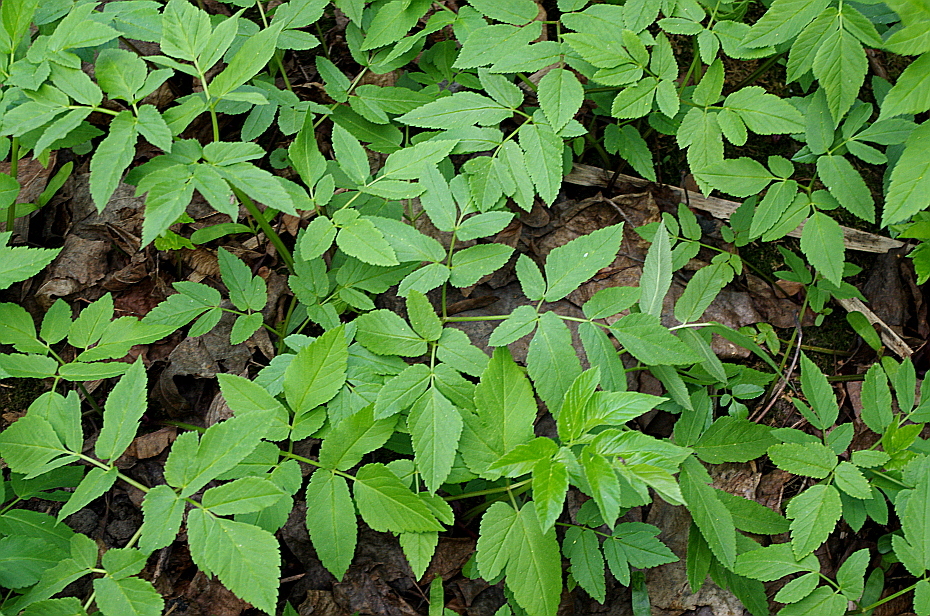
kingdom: Plantae
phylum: Tracheophyta
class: Magnoliopsida
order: Apiales
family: Apiaceae
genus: Aegopodium
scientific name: Aegopodium podagraria
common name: Ground-elder
